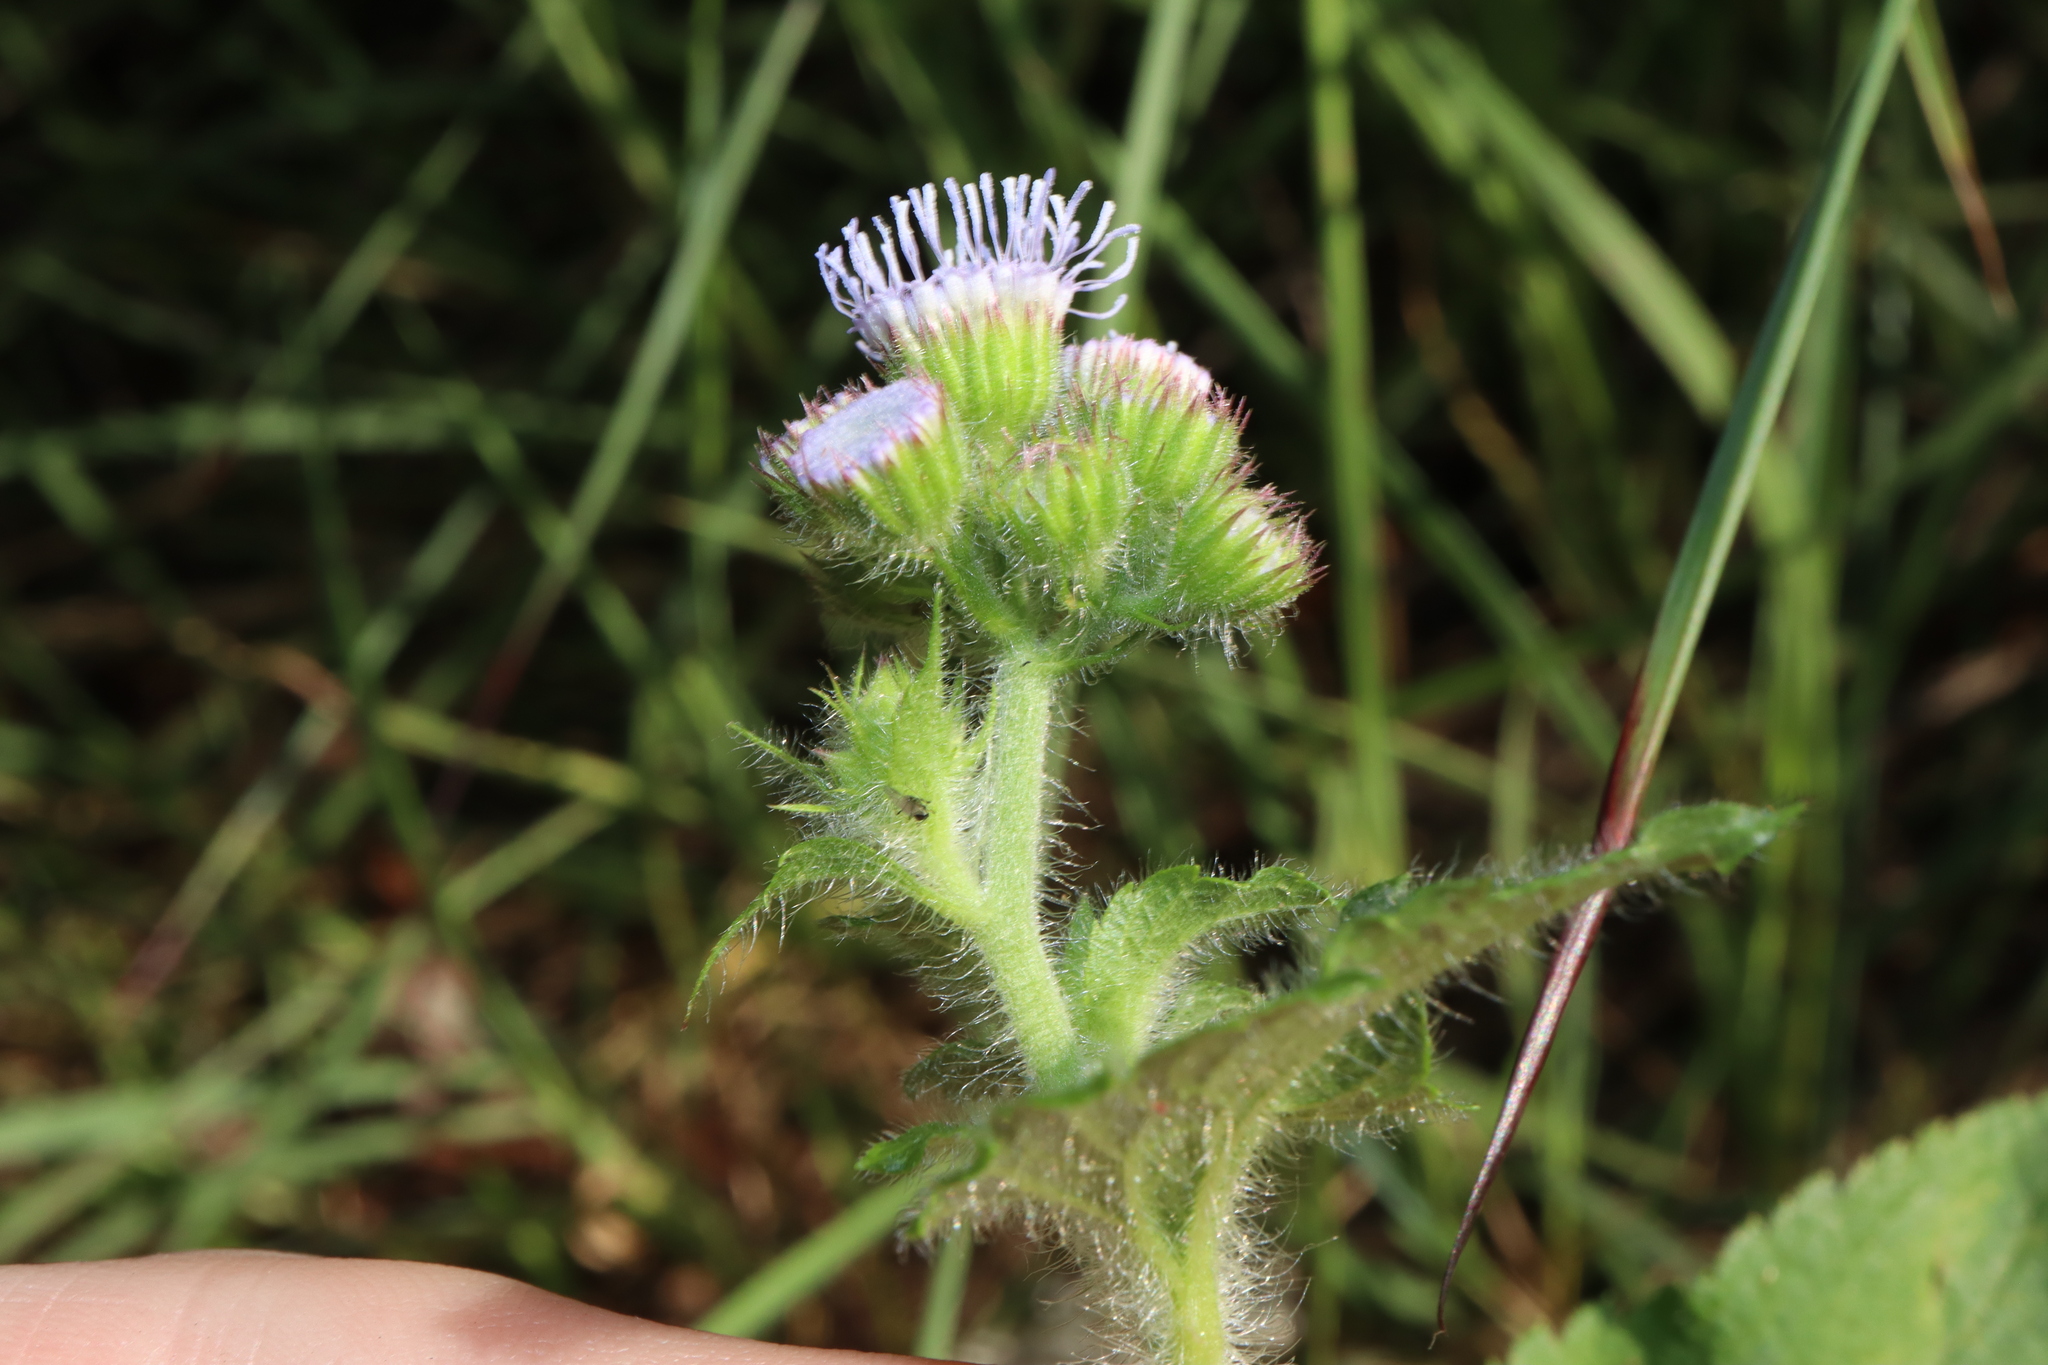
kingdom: Plantae
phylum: Tracheophyta
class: Magnoliopsida
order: Asterales
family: Asteraceae
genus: Ageratum
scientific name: Ageratum houstonianum
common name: Bluemink
